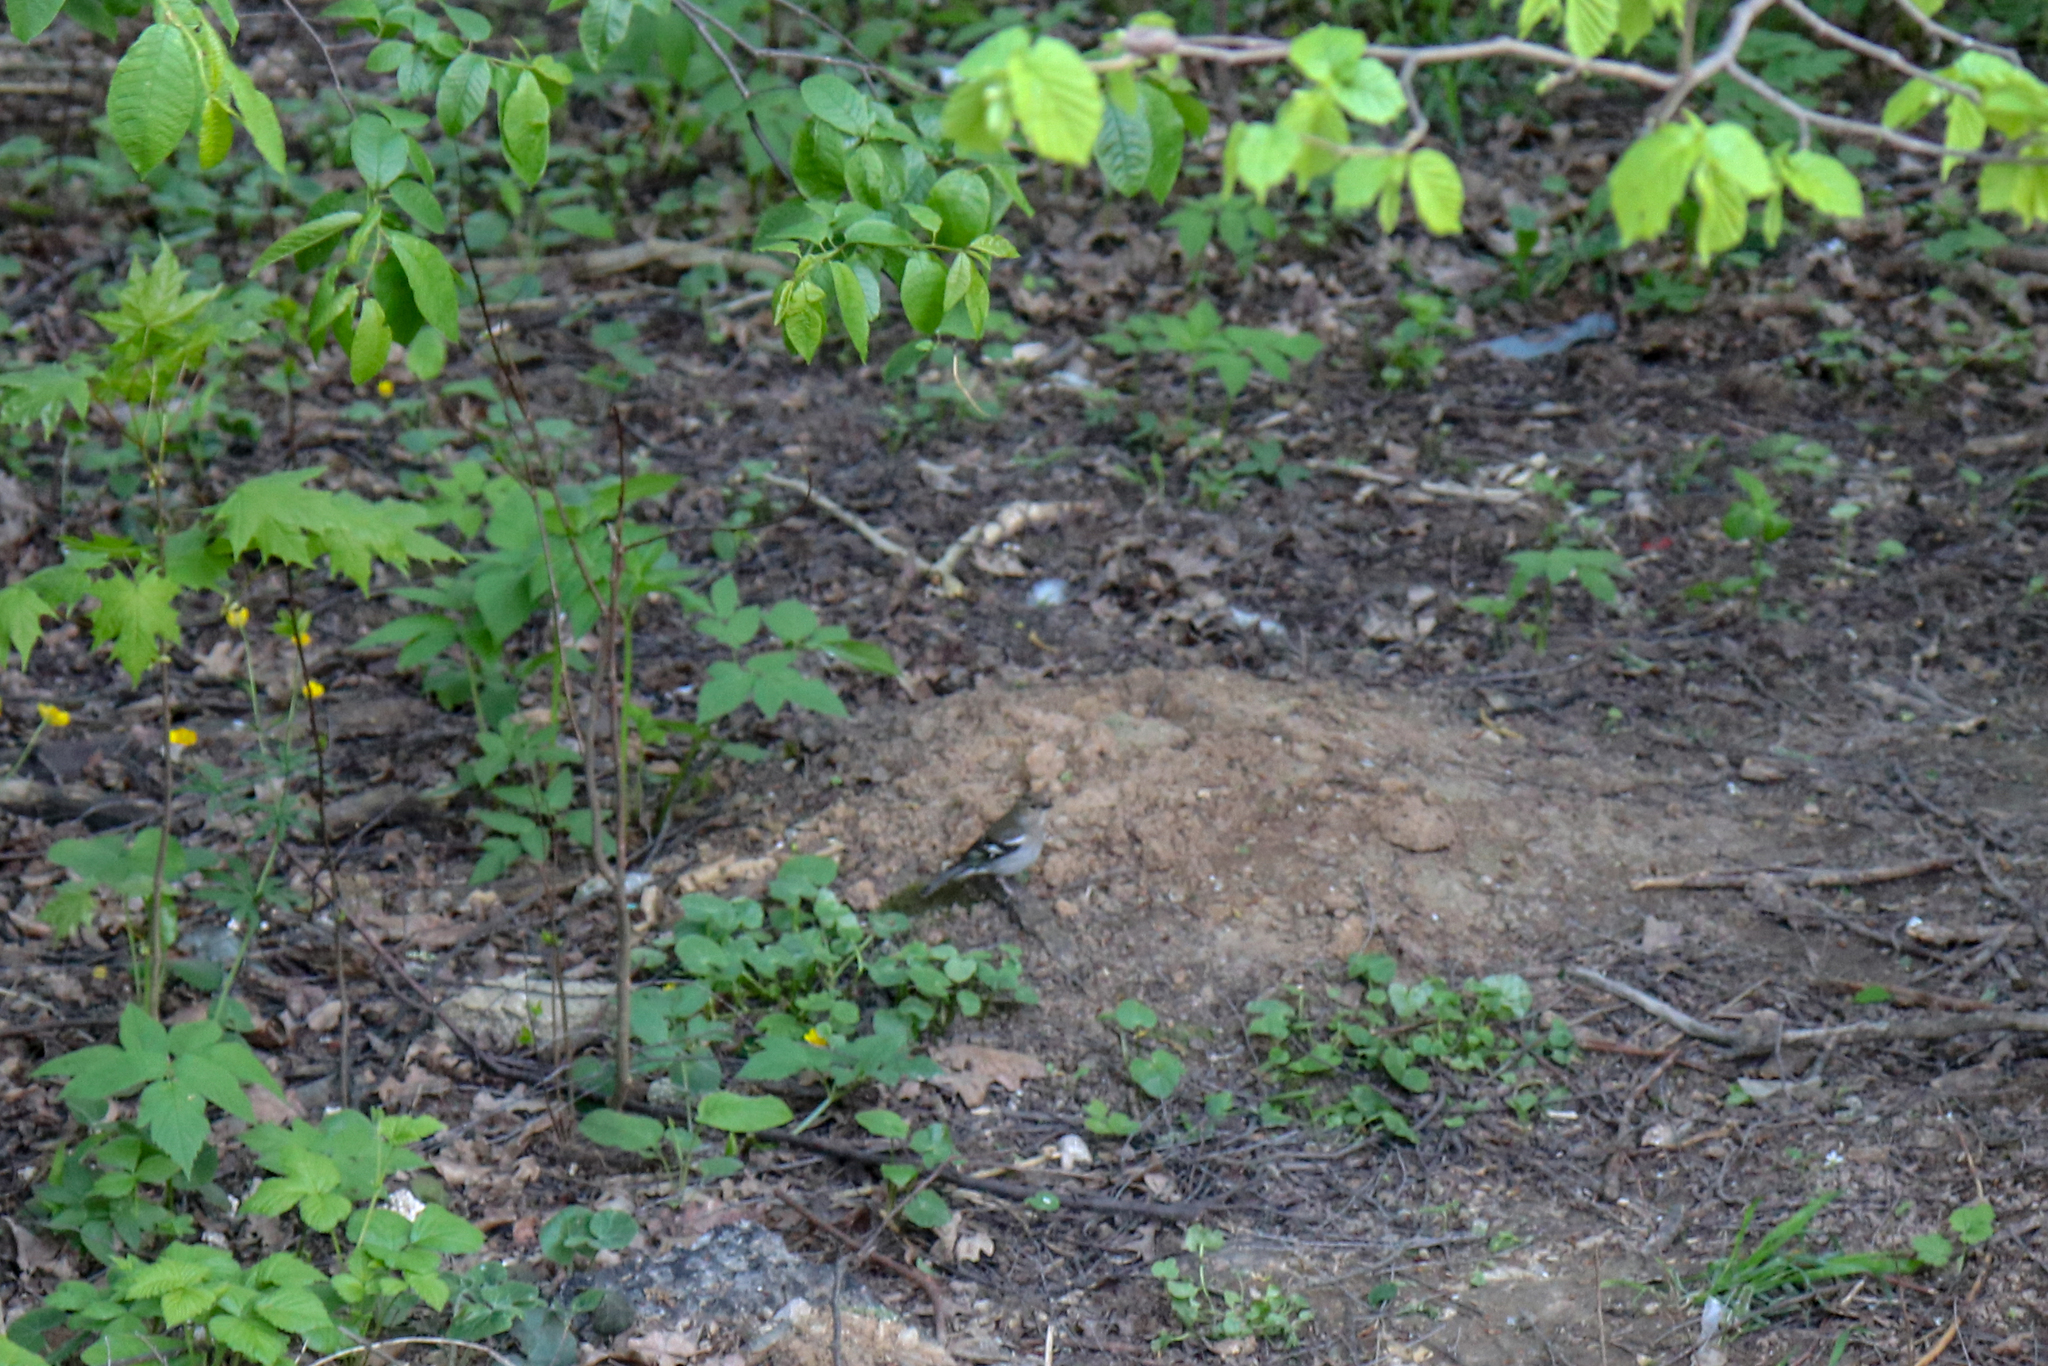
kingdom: Animalia
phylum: Chordata
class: Aves
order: Passeriformes
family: Fringillidae
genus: Fringilla
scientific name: Fringilla coelebs
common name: Common chaffinch
